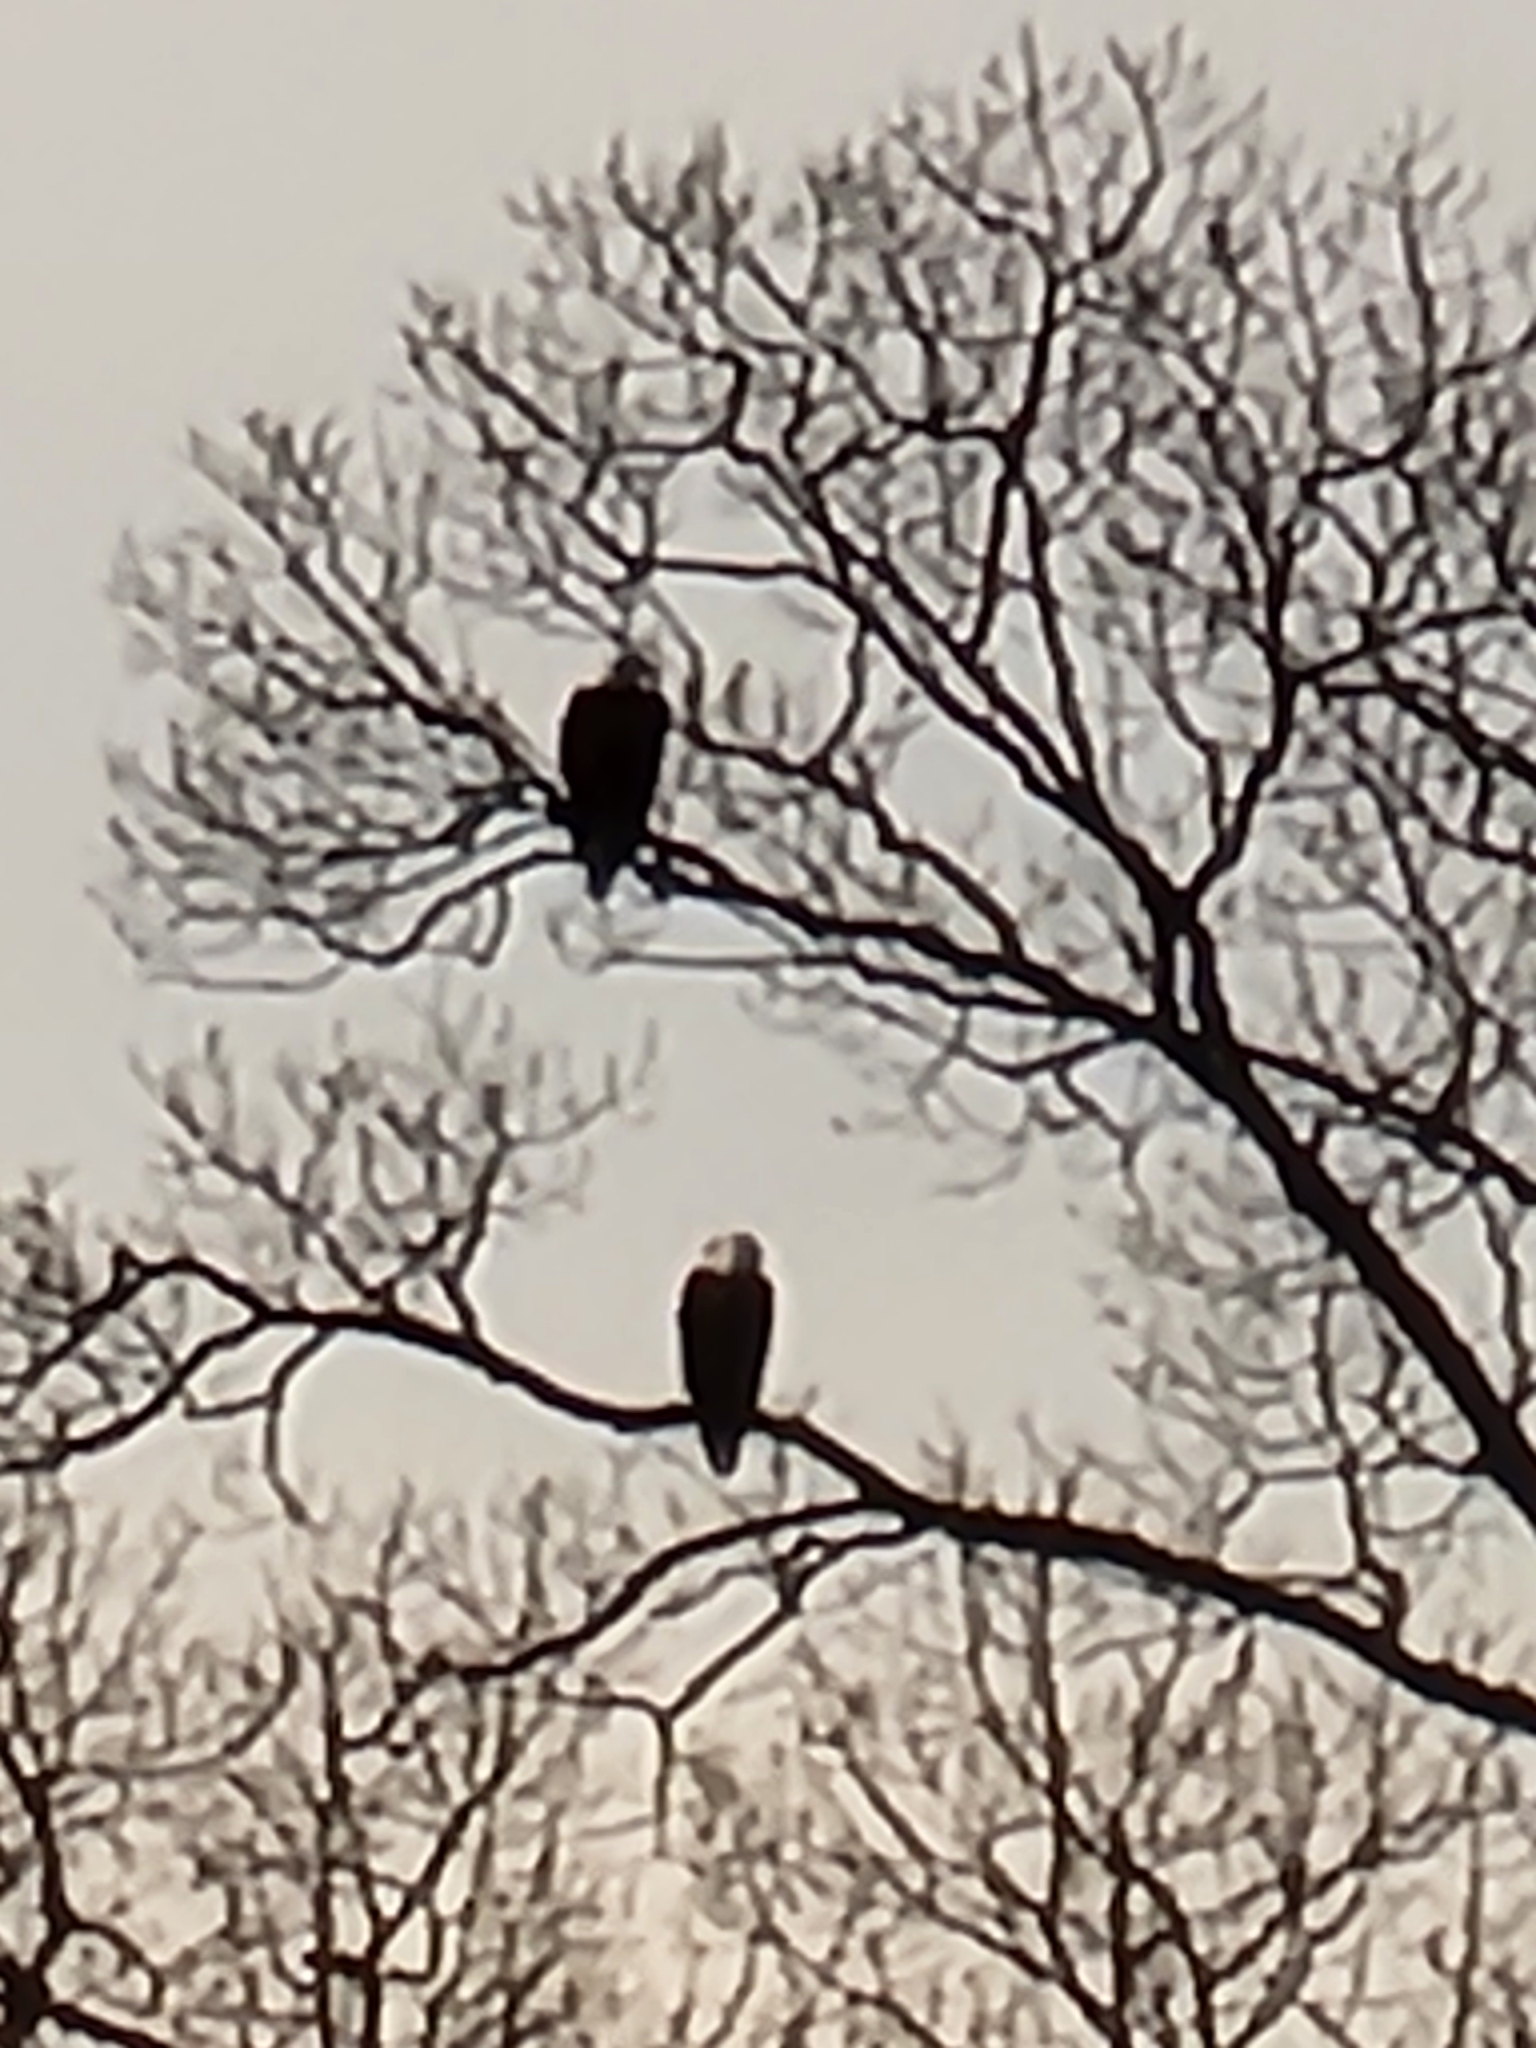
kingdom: Animalia
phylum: Chordata
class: Aves
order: Accipitriformes
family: Accipitridae
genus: Haliaeetus
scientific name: Haliaeetus leucocephalus
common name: Bald eagle
